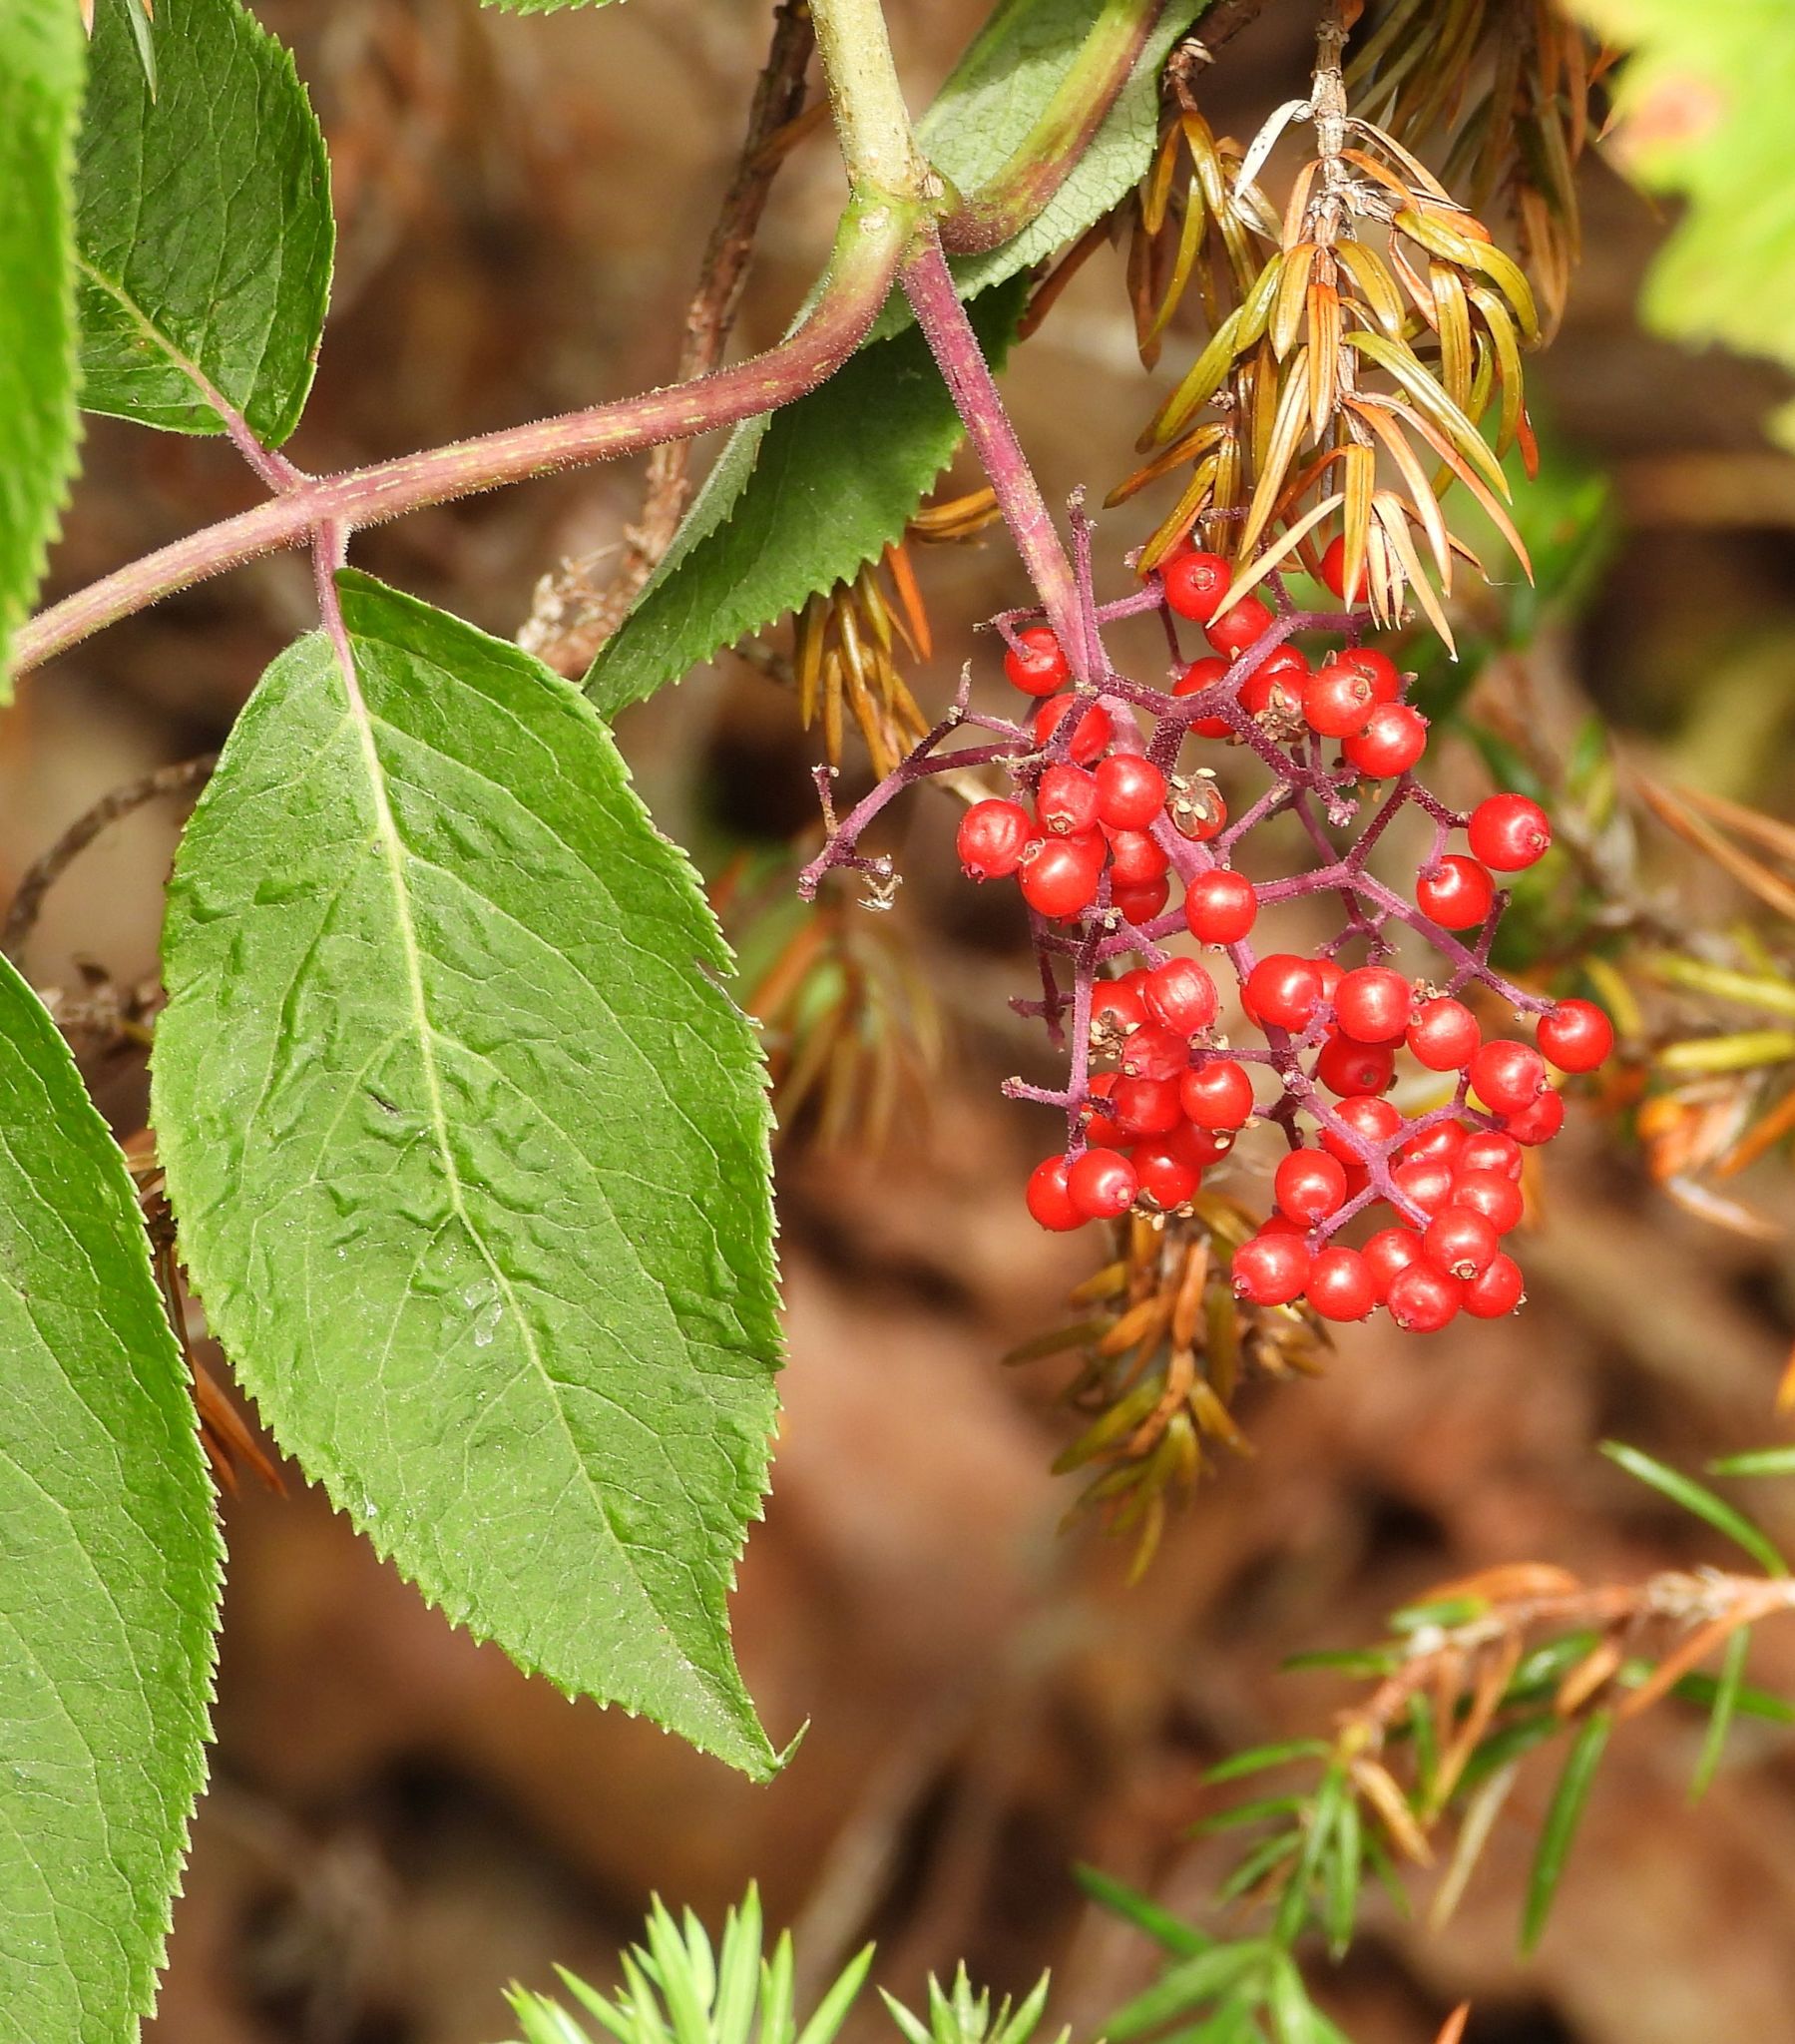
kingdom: Plantae
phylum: Tracheophyta
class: Magnoliopsida
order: Dipsacales
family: Viburnaceae
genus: Sambucus
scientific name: Sambucus racemosa
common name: Red-berried elder
